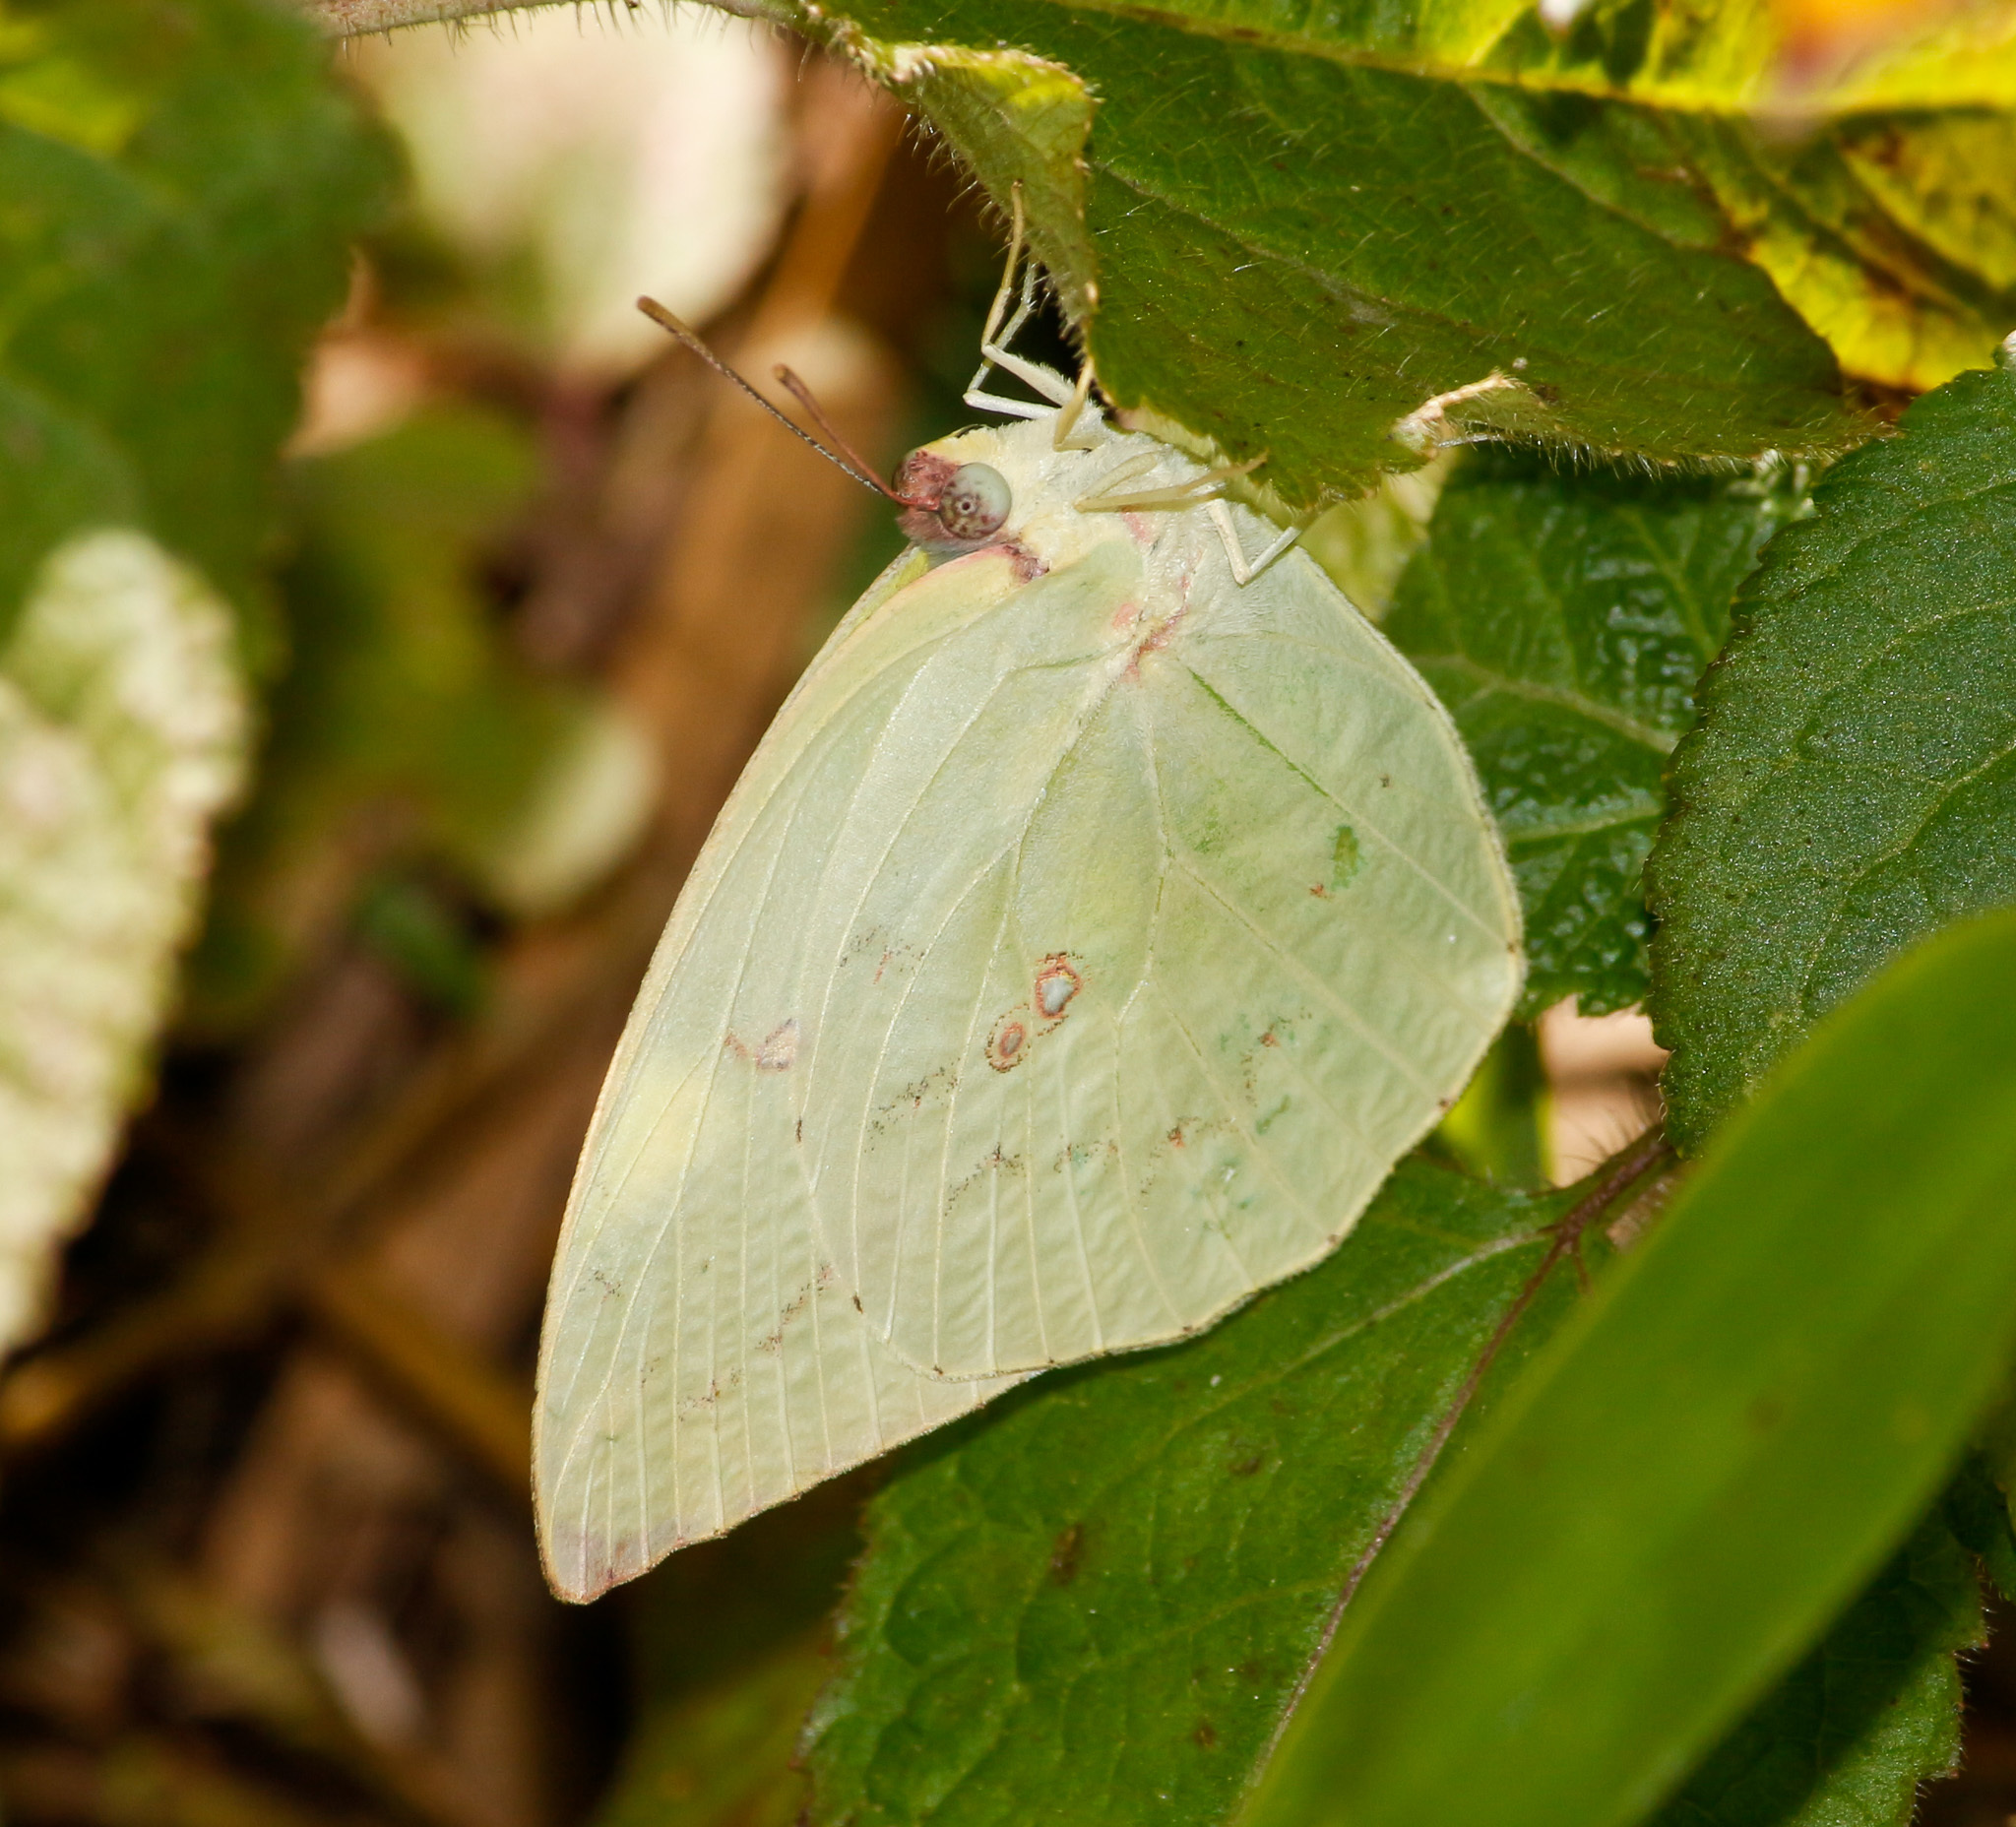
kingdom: Animalia
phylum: Arthropoda
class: Insecta
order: Lepidoptera
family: Pieridae
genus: Catopsilia
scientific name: Catopsilia pomona
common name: Common emigrant
